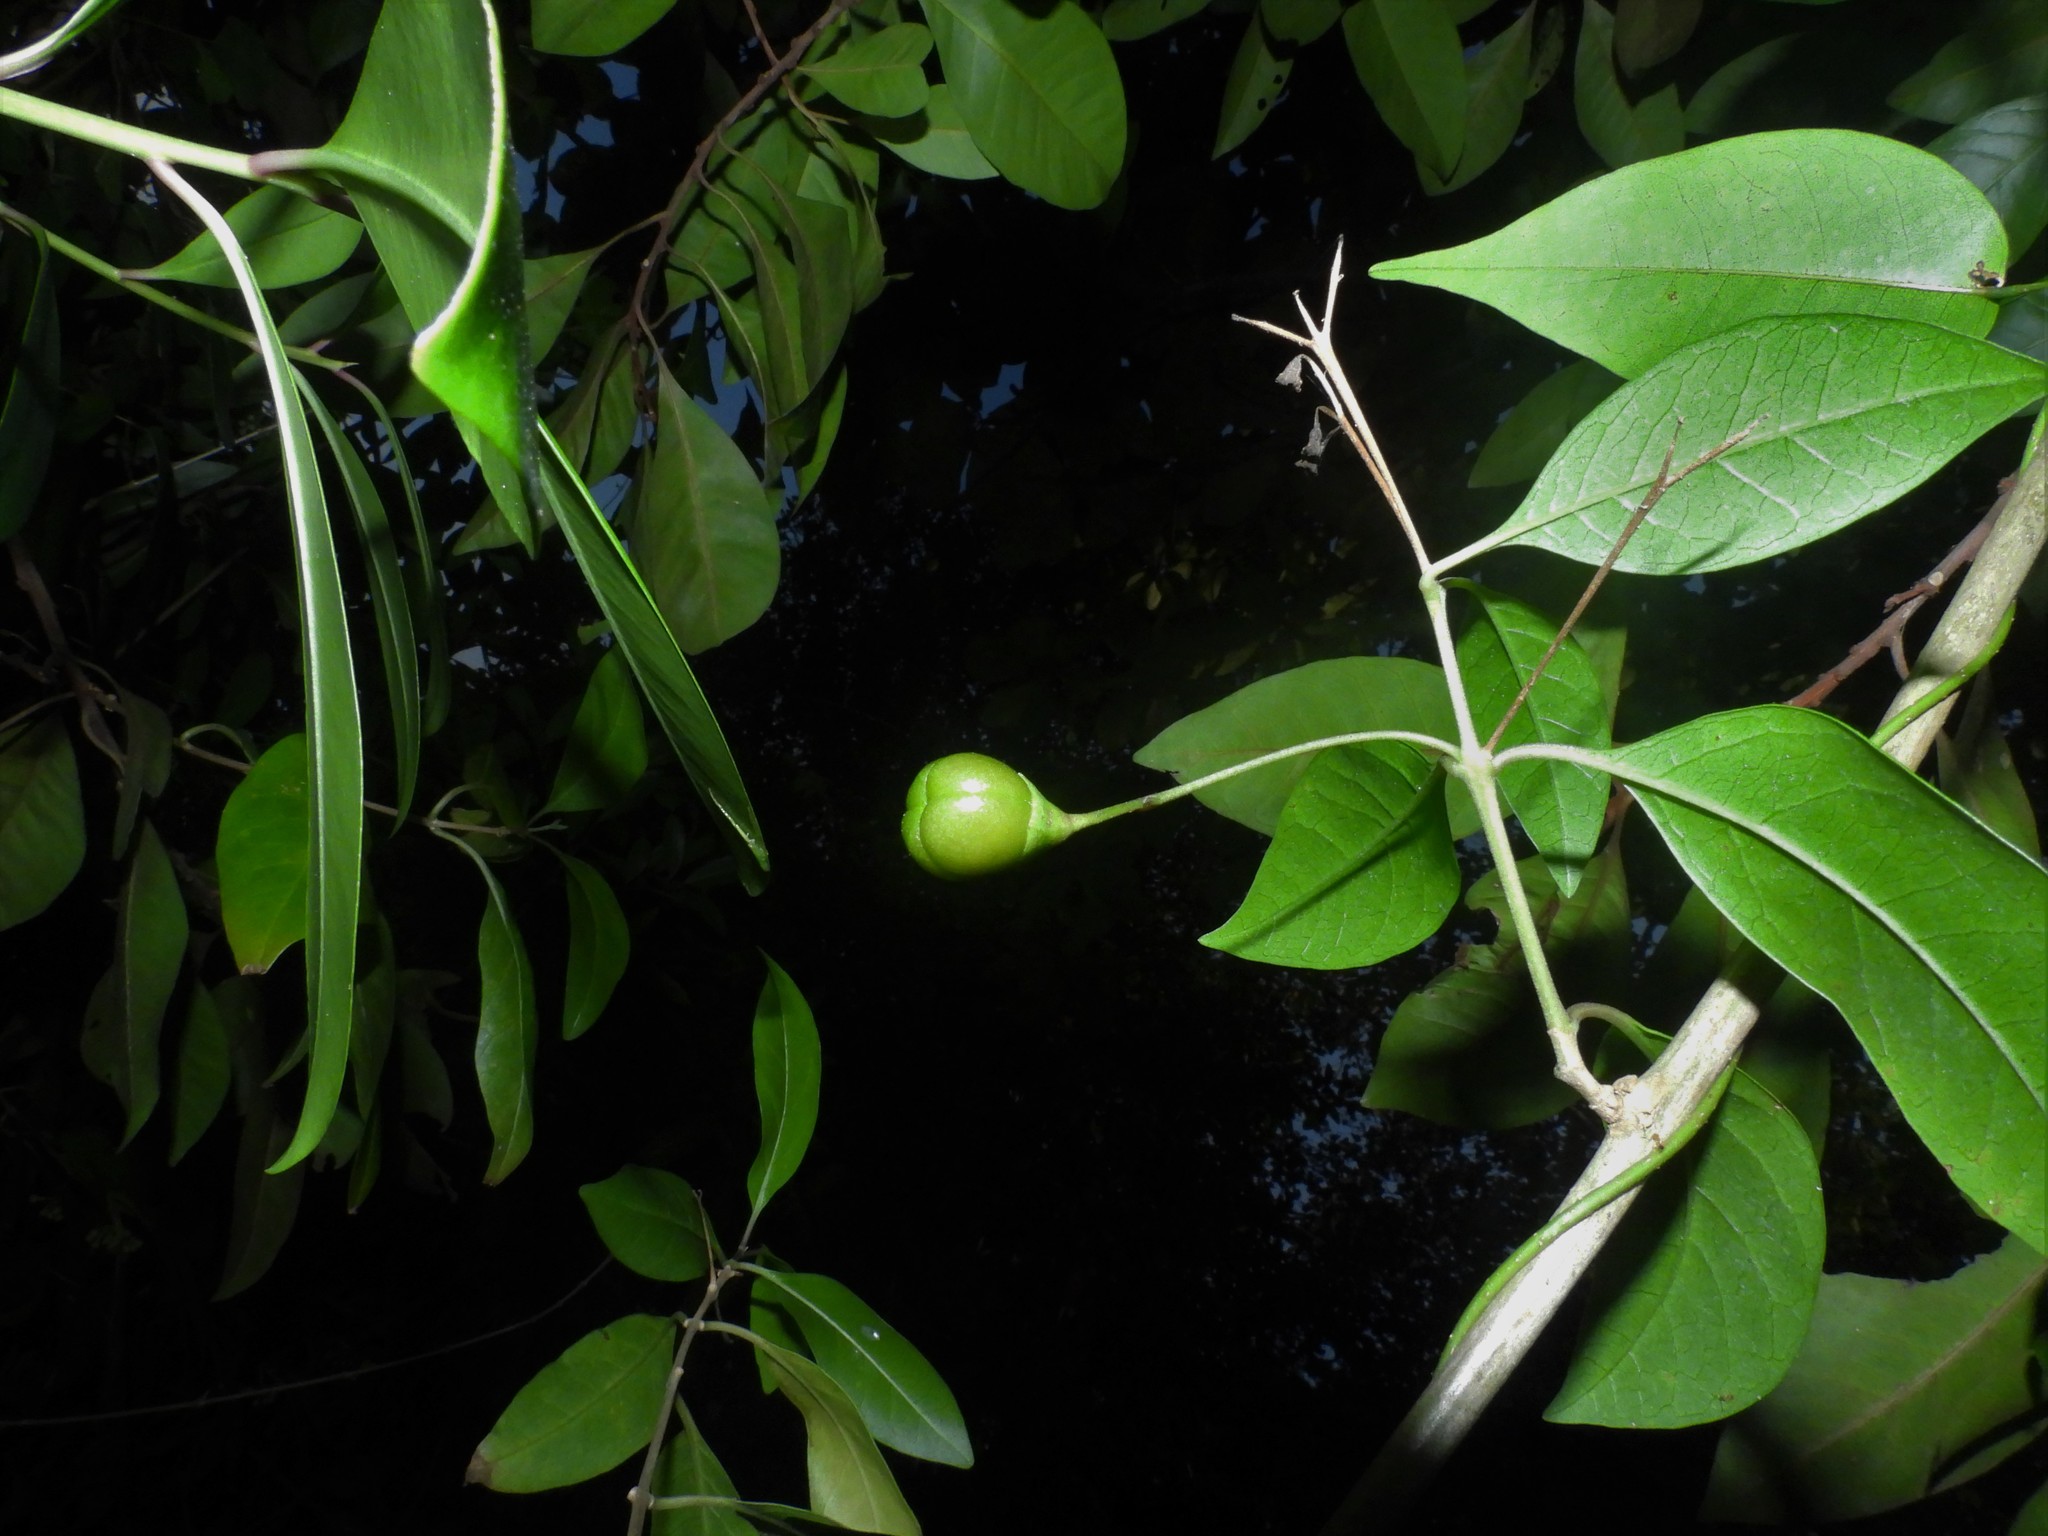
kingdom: Plantae
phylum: Tracheophyta
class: Magnoliopsida
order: Lamiales
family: Lamiaceae
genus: Volkameria
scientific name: Volkameria inermis
